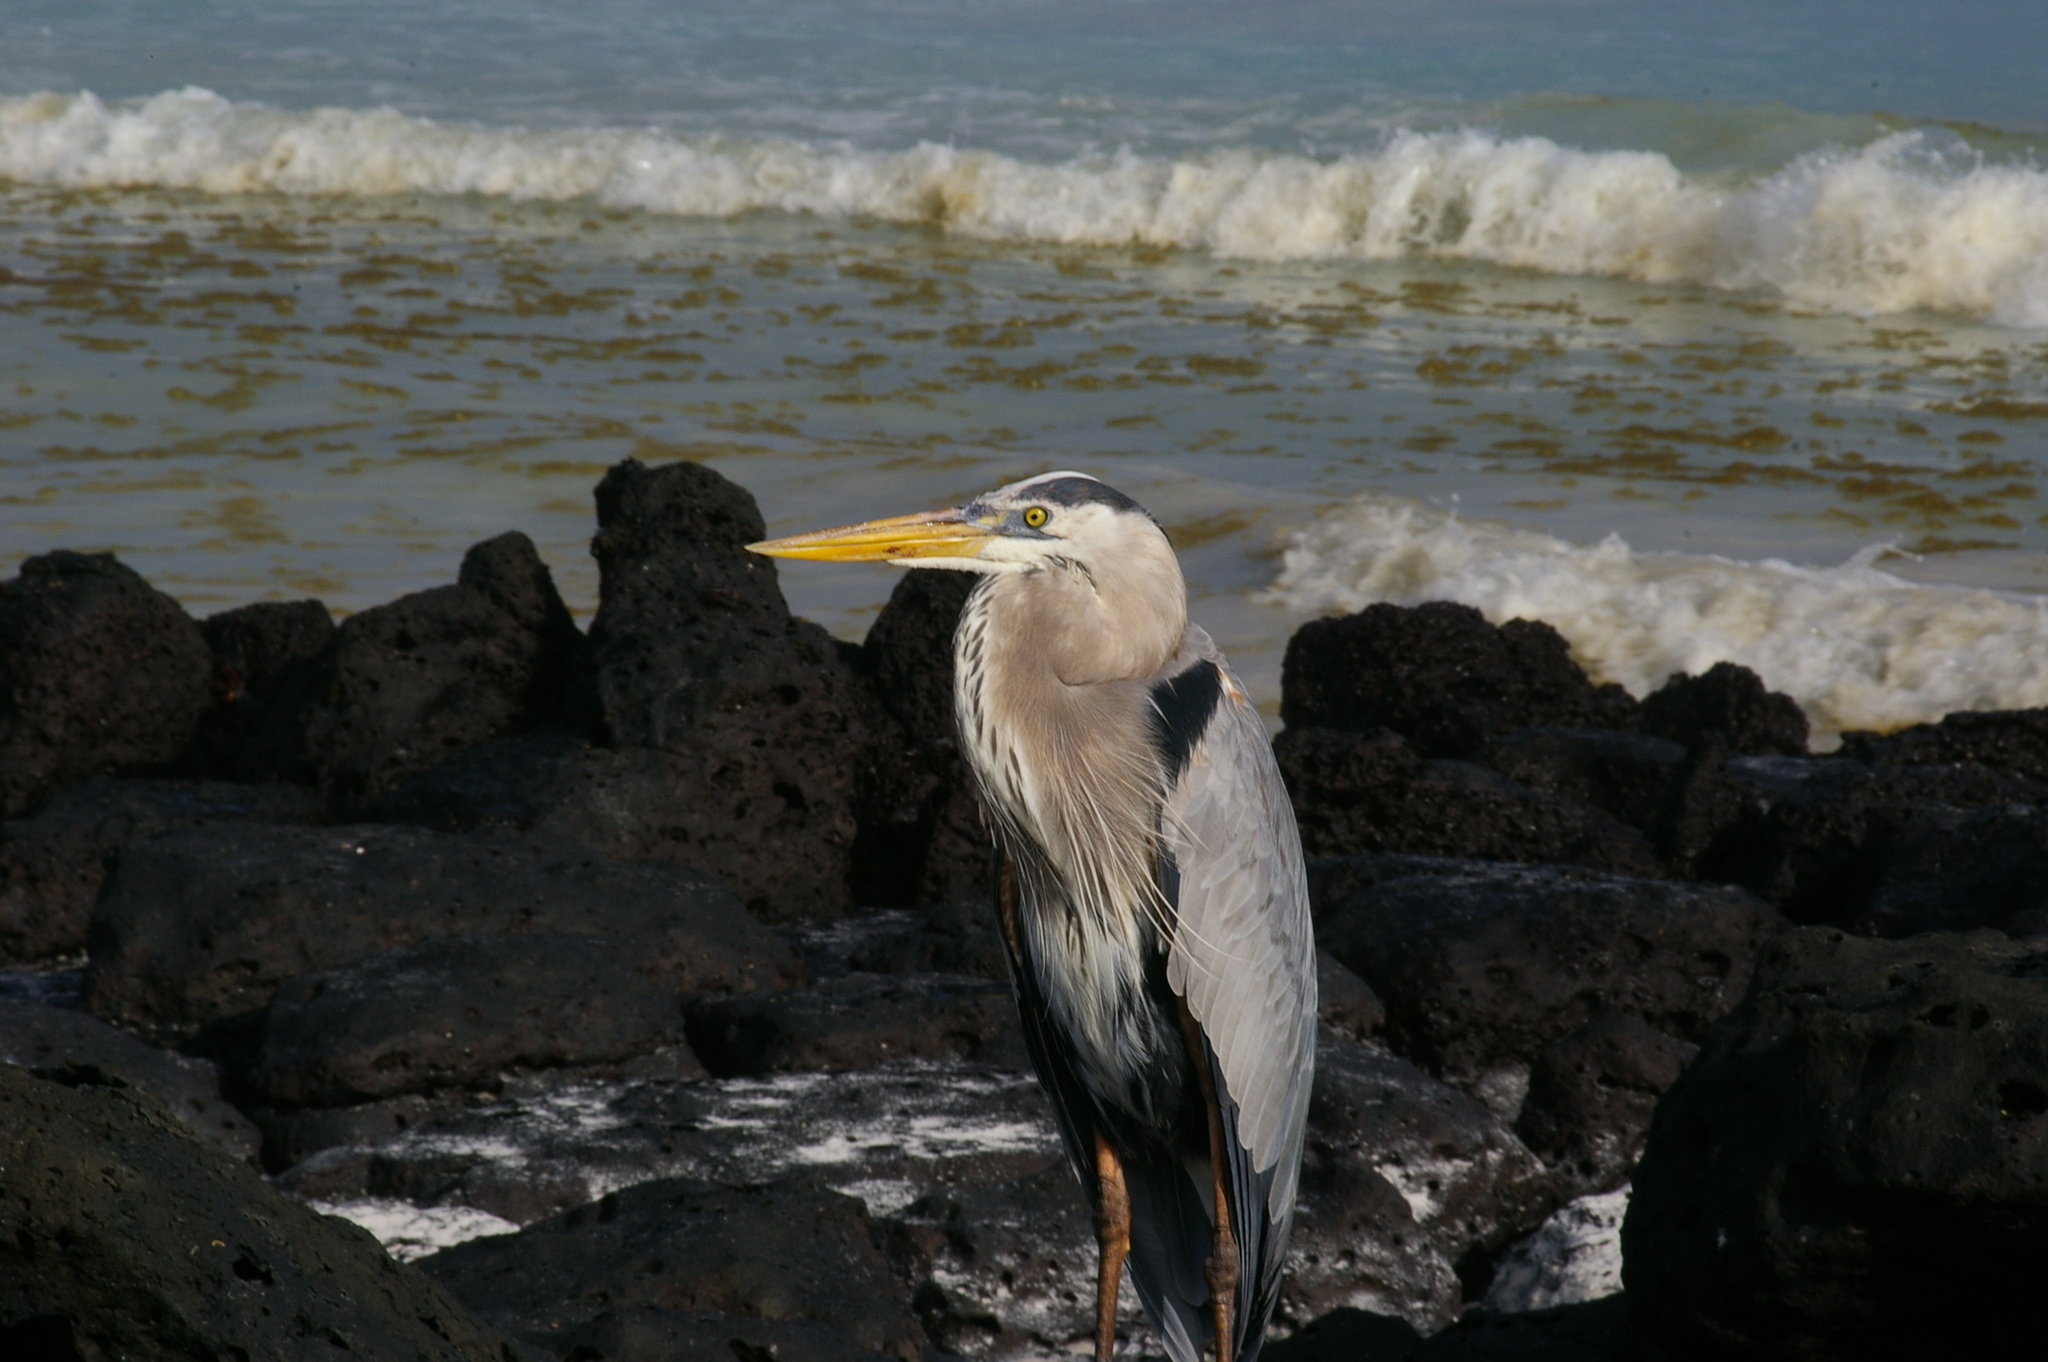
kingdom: Animalia
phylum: Chordata
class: Aves
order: Pelecaniformes
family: Ardeidae
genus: Ardea
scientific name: Ardea herodias
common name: Great blue heron
